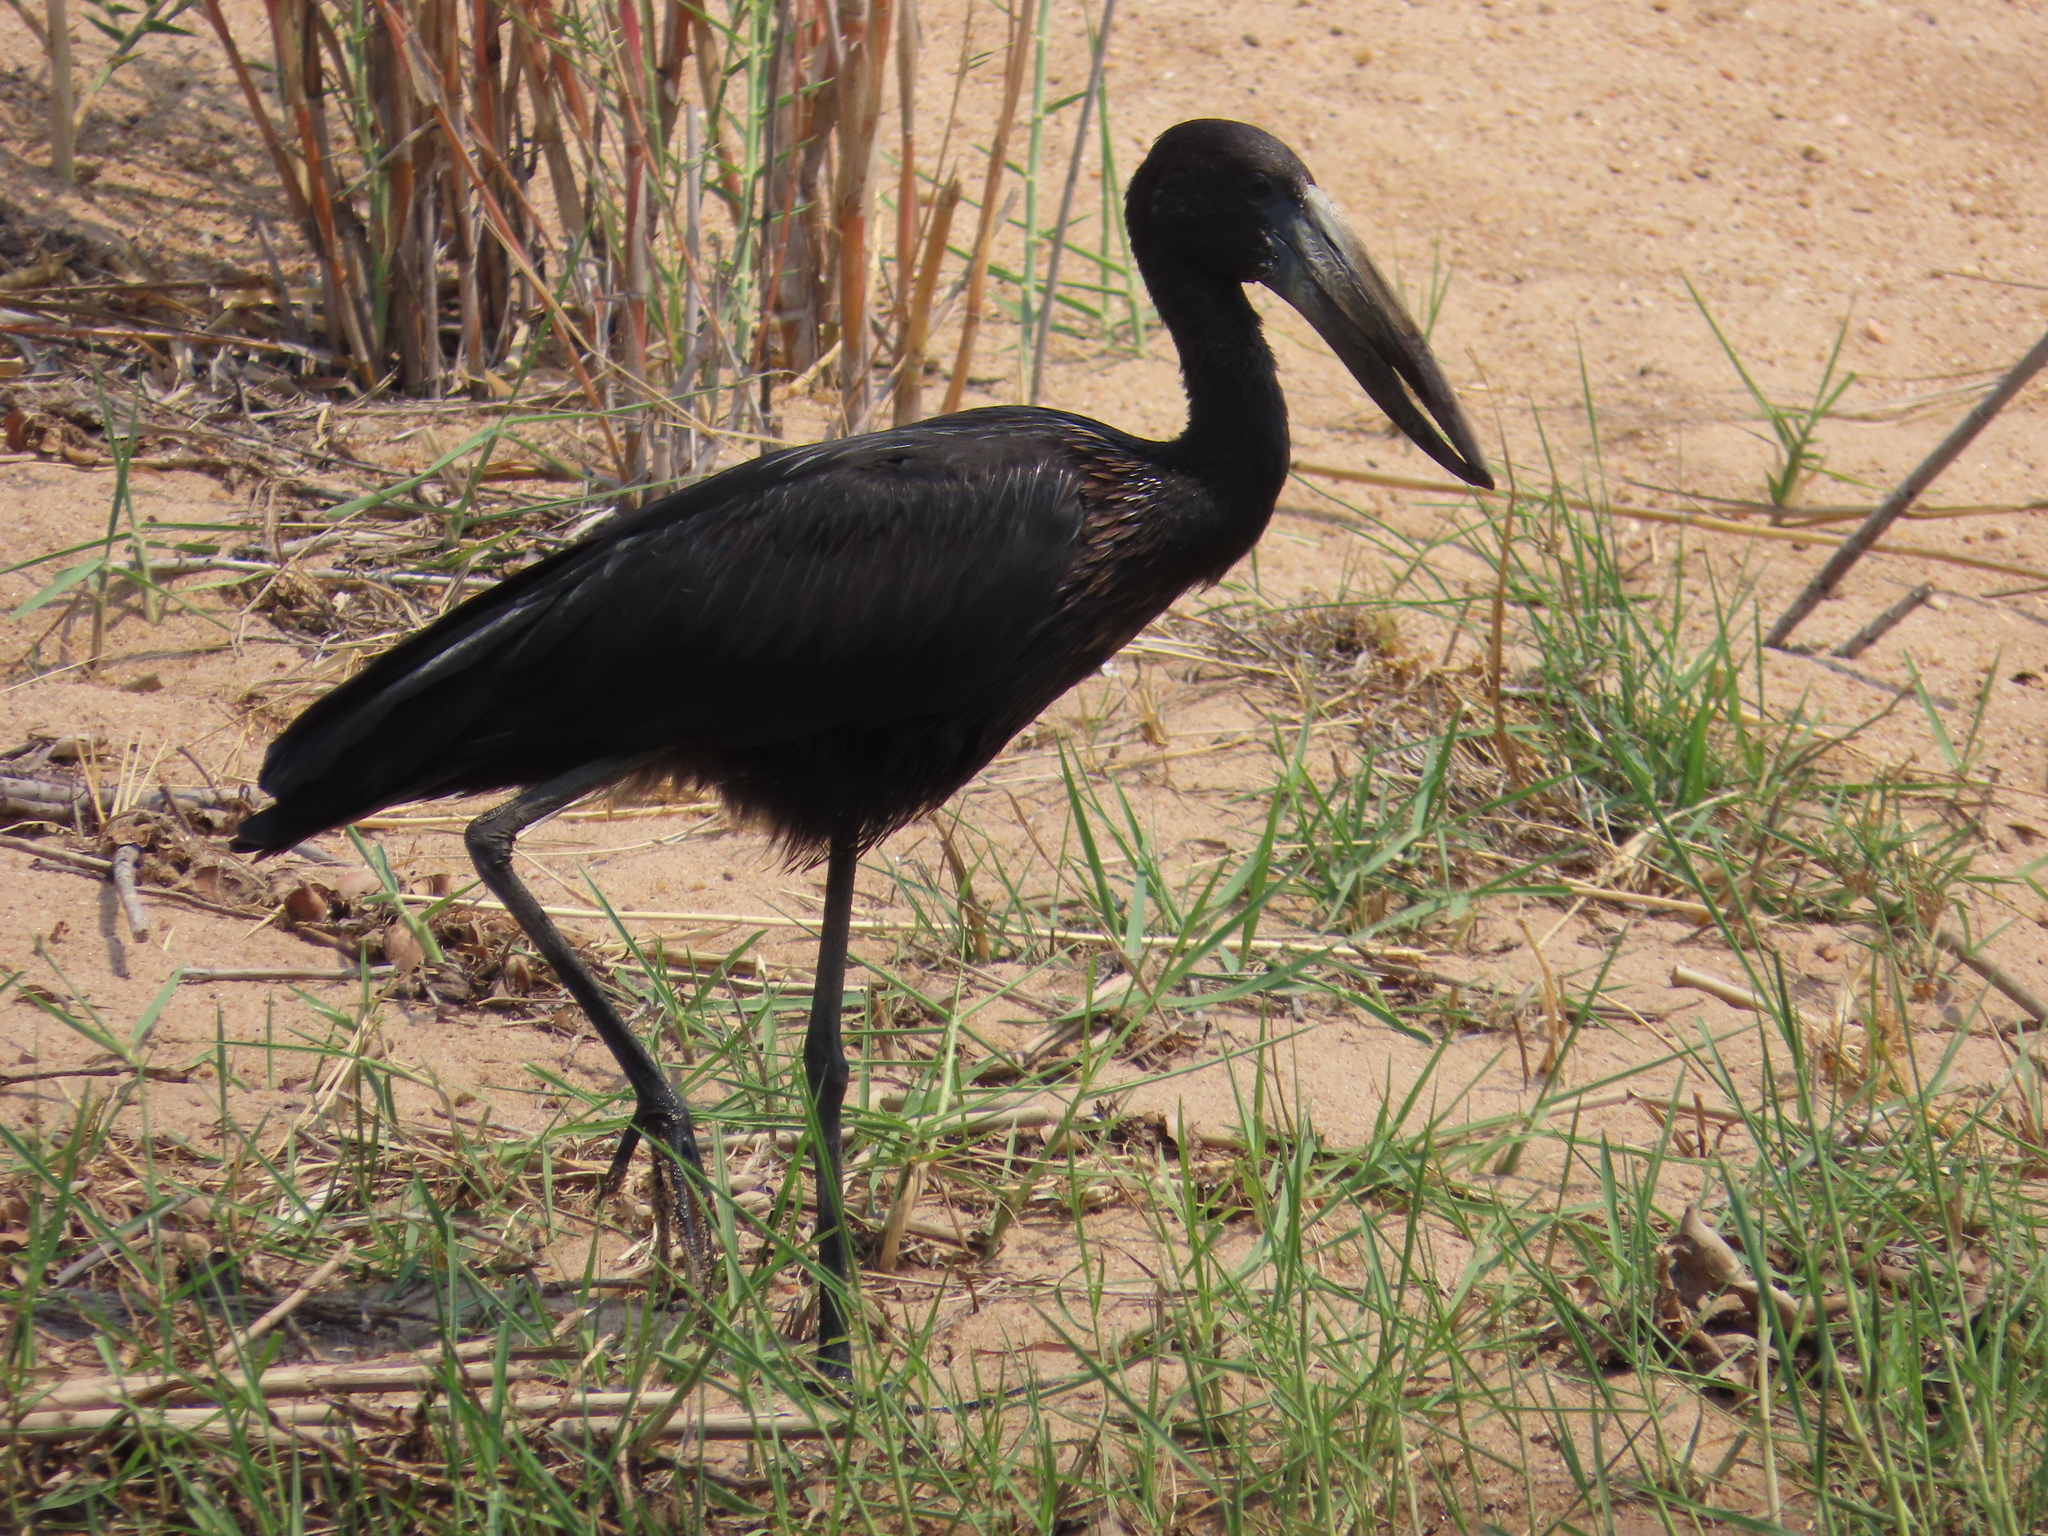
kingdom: Animalia
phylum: Chordata
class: Aves
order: Ciconiiformes
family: Ciconiidae
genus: Anastomus
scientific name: Anastomus lamelligerus
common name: African openbill
